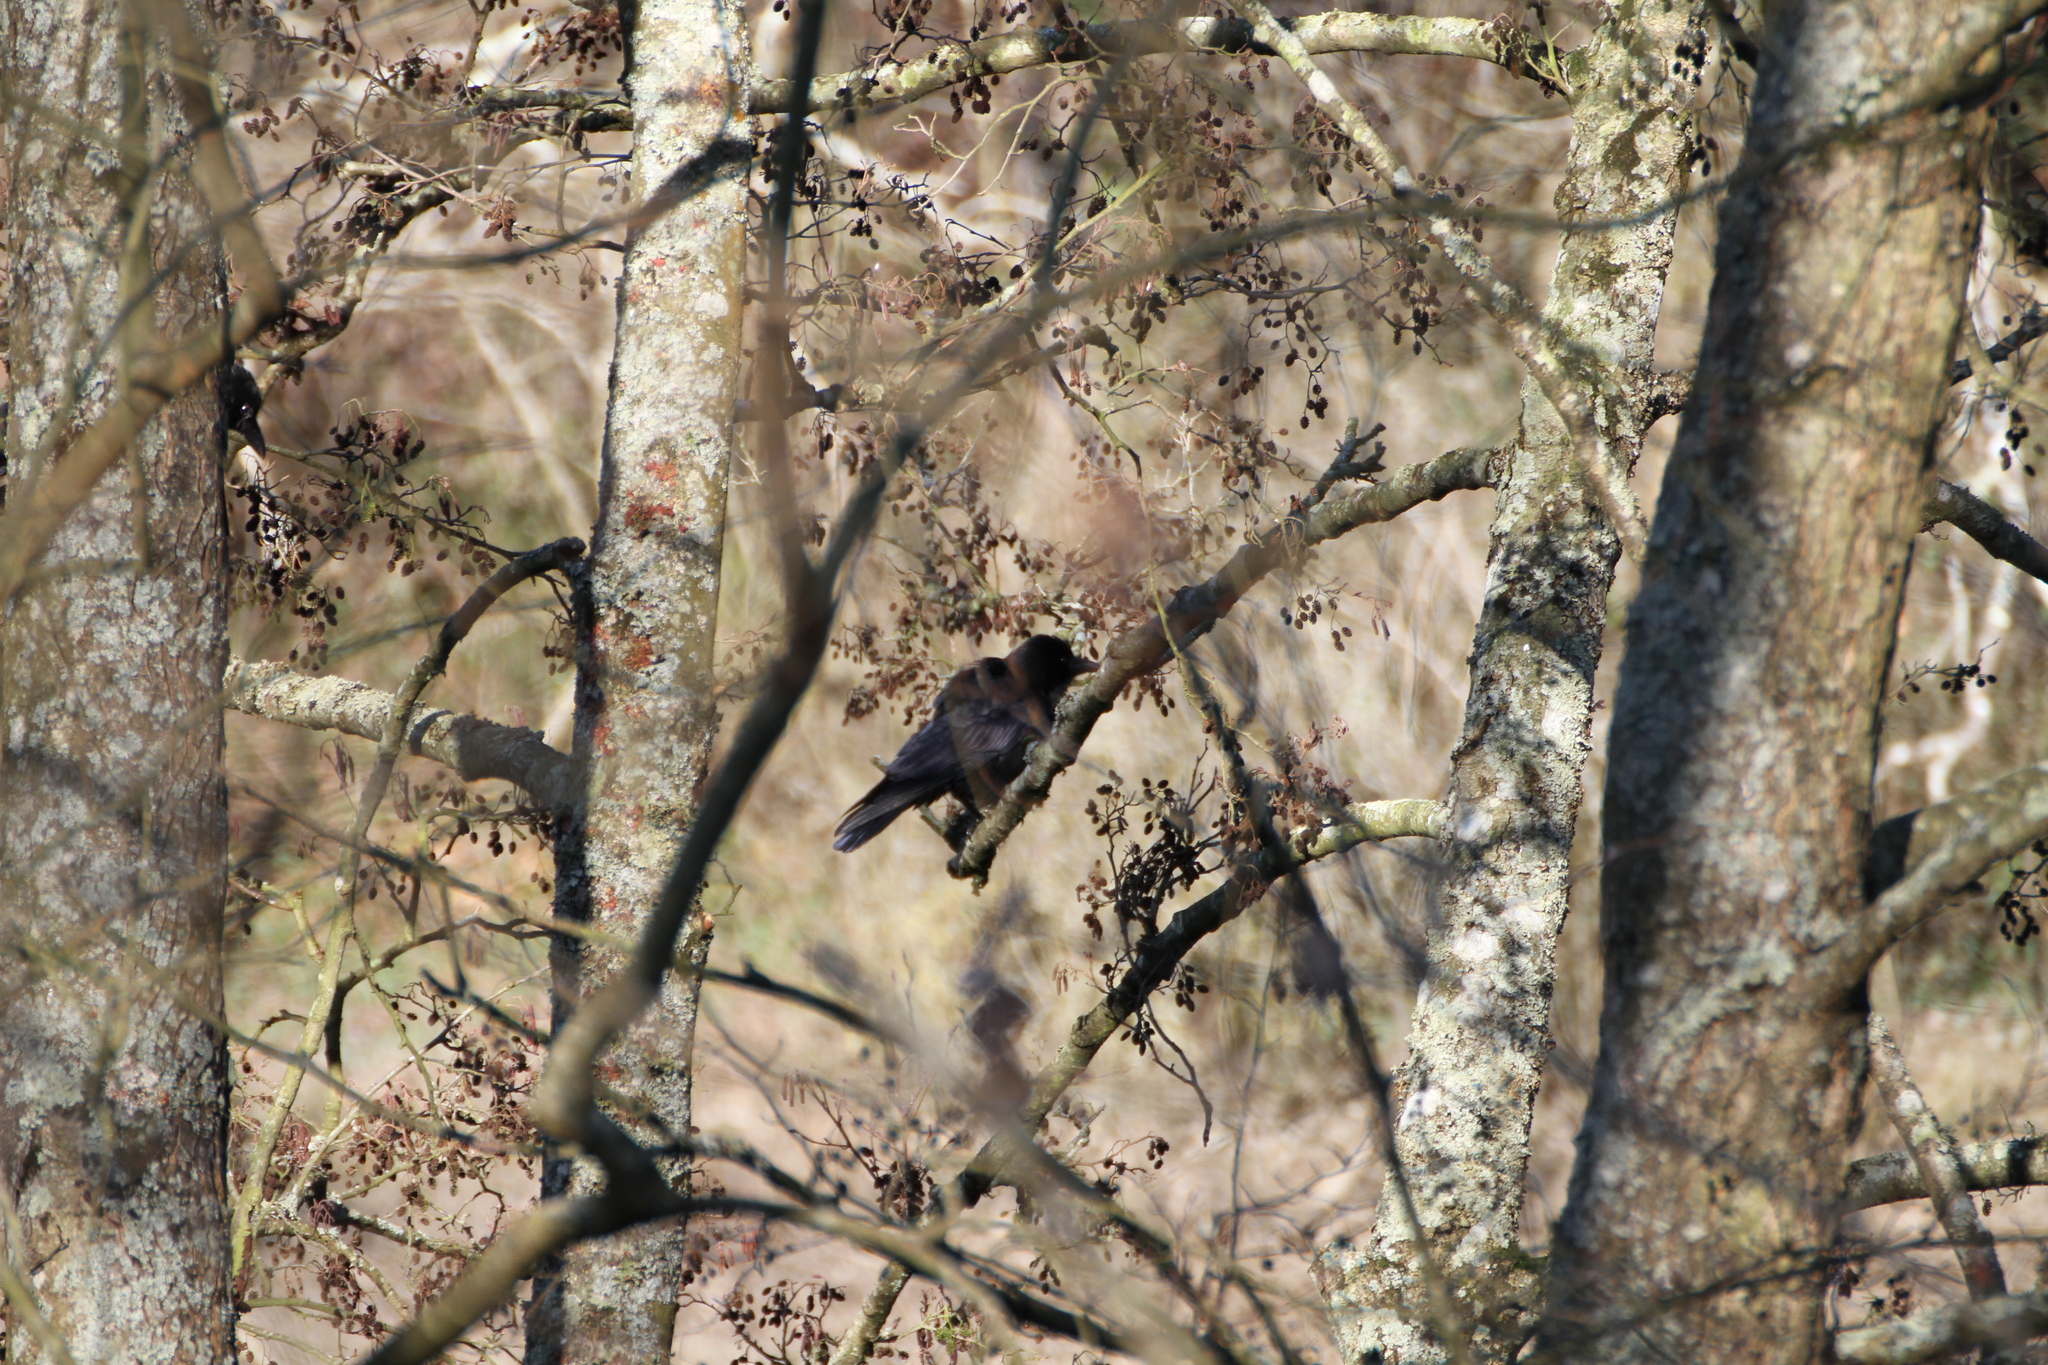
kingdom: Animalia
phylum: Chordata
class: Aves
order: Passeriformes
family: Corvidae
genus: Corvus
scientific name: Corvus corone
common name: Carrion crow
